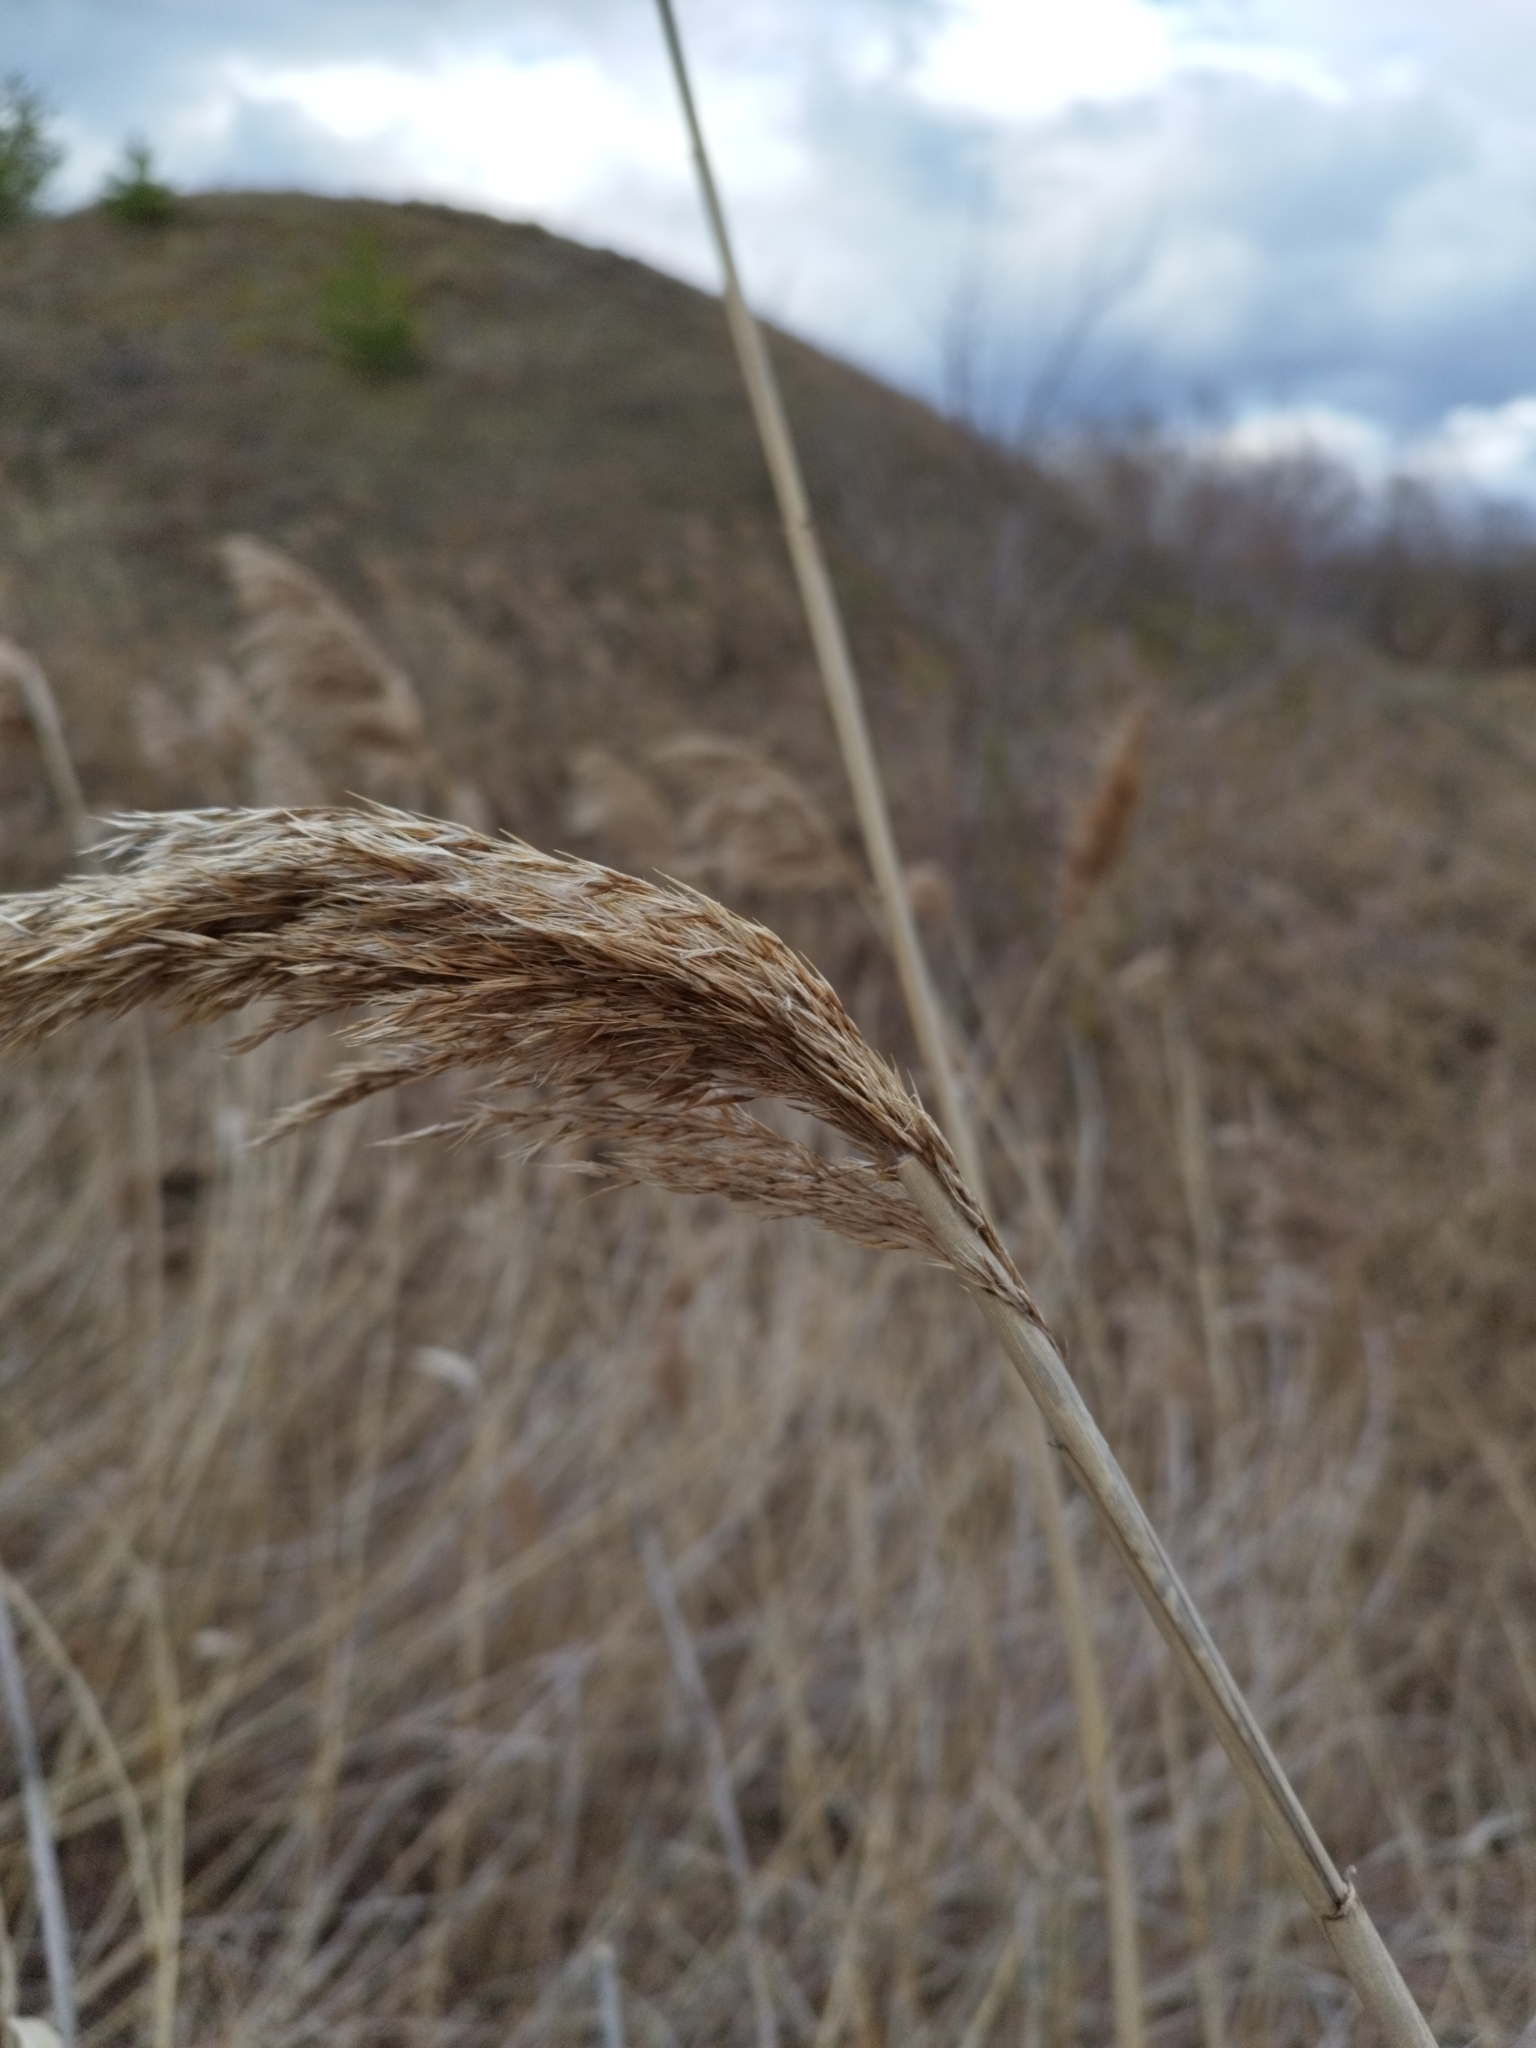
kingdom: Plantae
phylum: Tracheophyta
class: Liliopsida
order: Poales
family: Poaceae
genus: Phragmites
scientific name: Phragmites australis
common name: Common reed
